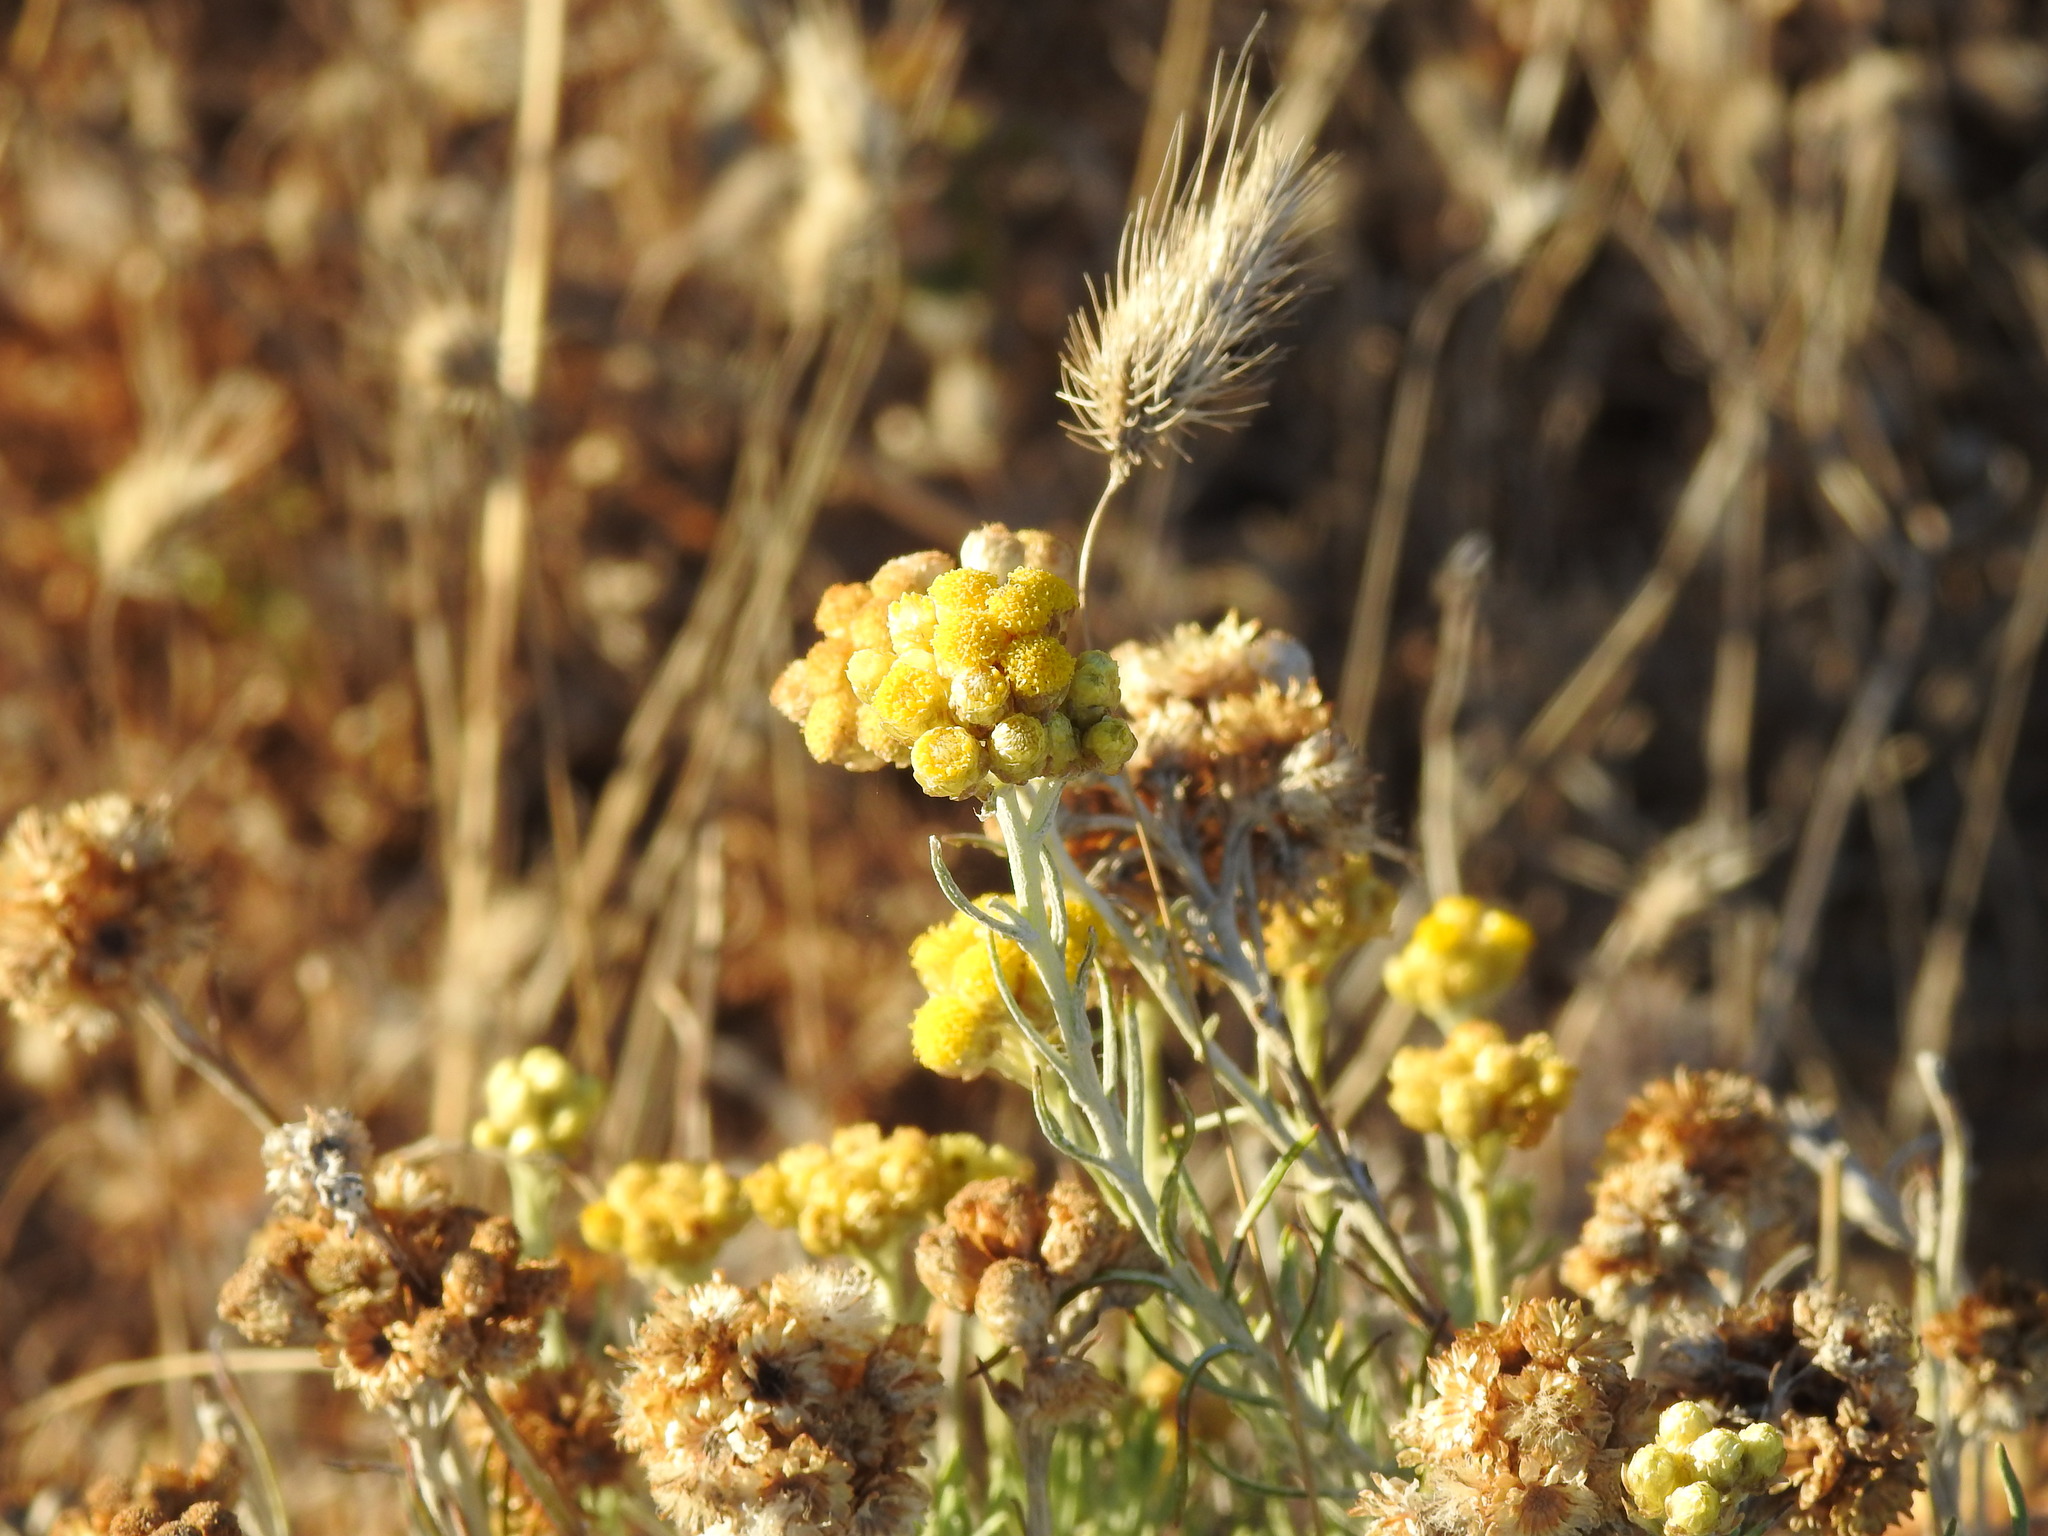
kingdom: Plantae
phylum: Tracheophyta
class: Magnoliopsida
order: Asterales
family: Asteraceae
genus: Helichrysum
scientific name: Helichrysum stoechas
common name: Goldilocks
